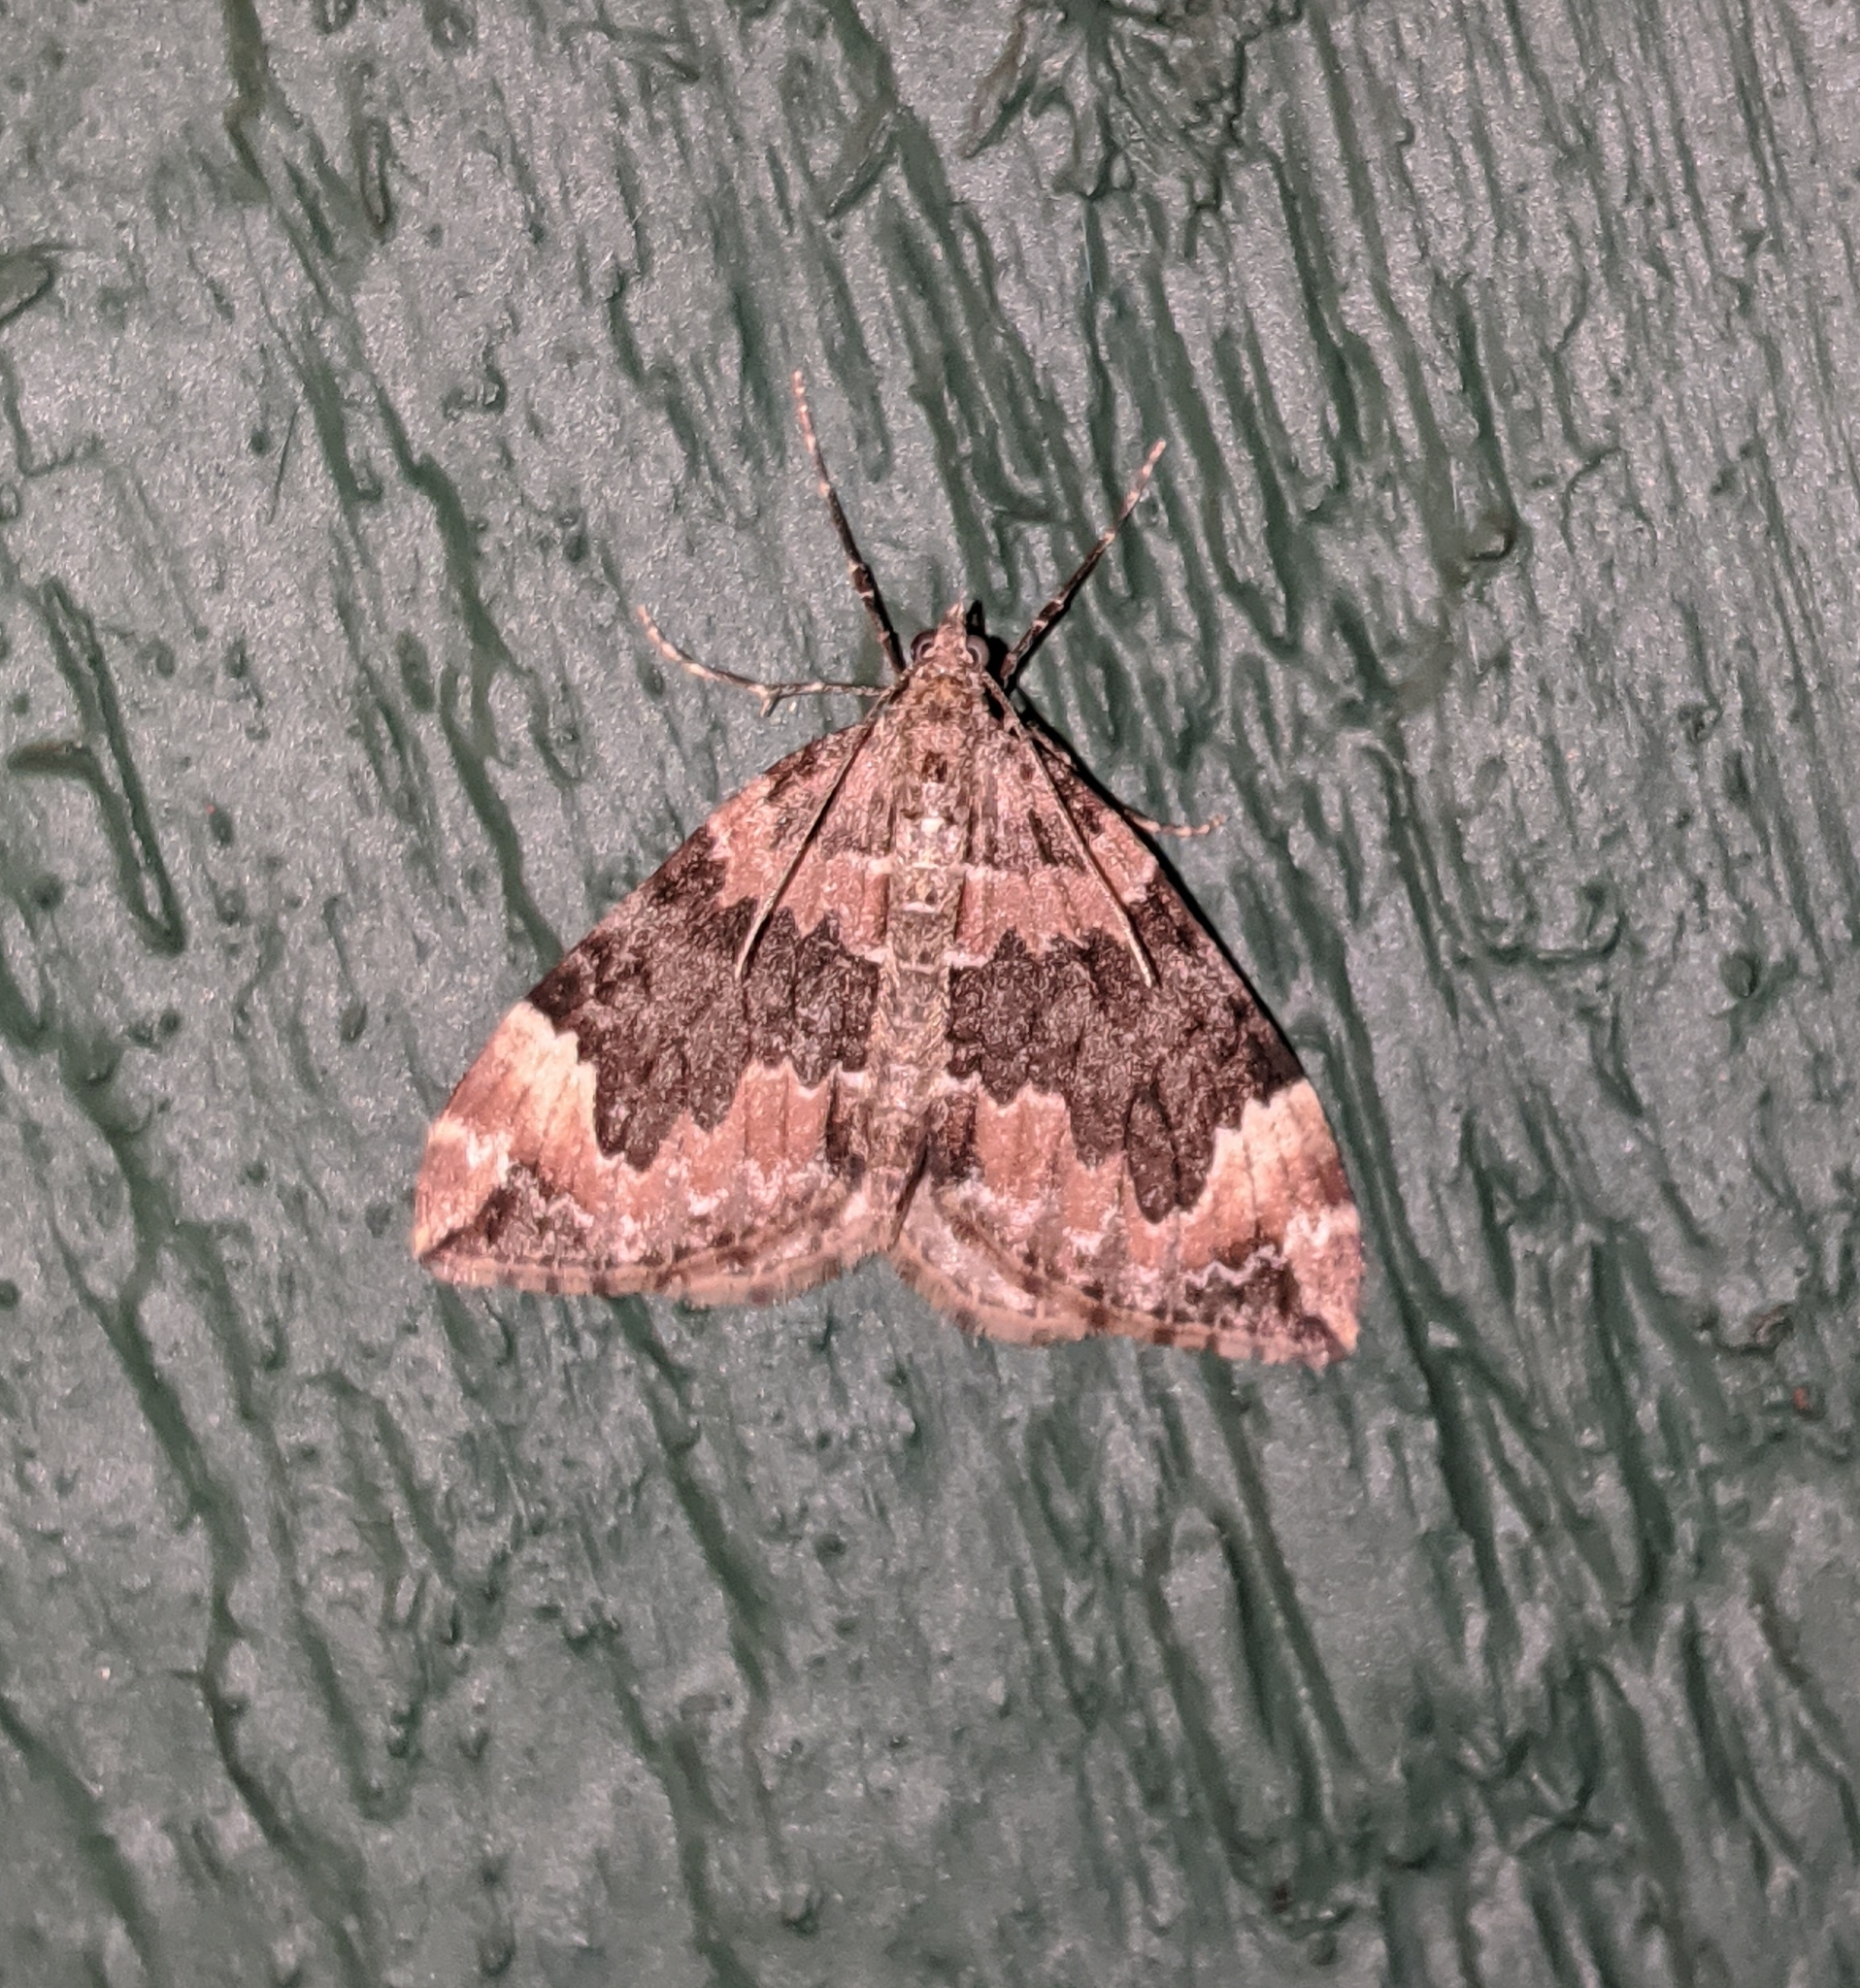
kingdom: Animalia
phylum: Arthropoda
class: Insecta
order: Lepidoptera
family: Geometridae
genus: Dysstroma
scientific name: Dysstroma citrata
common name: Dark marbled carpet
